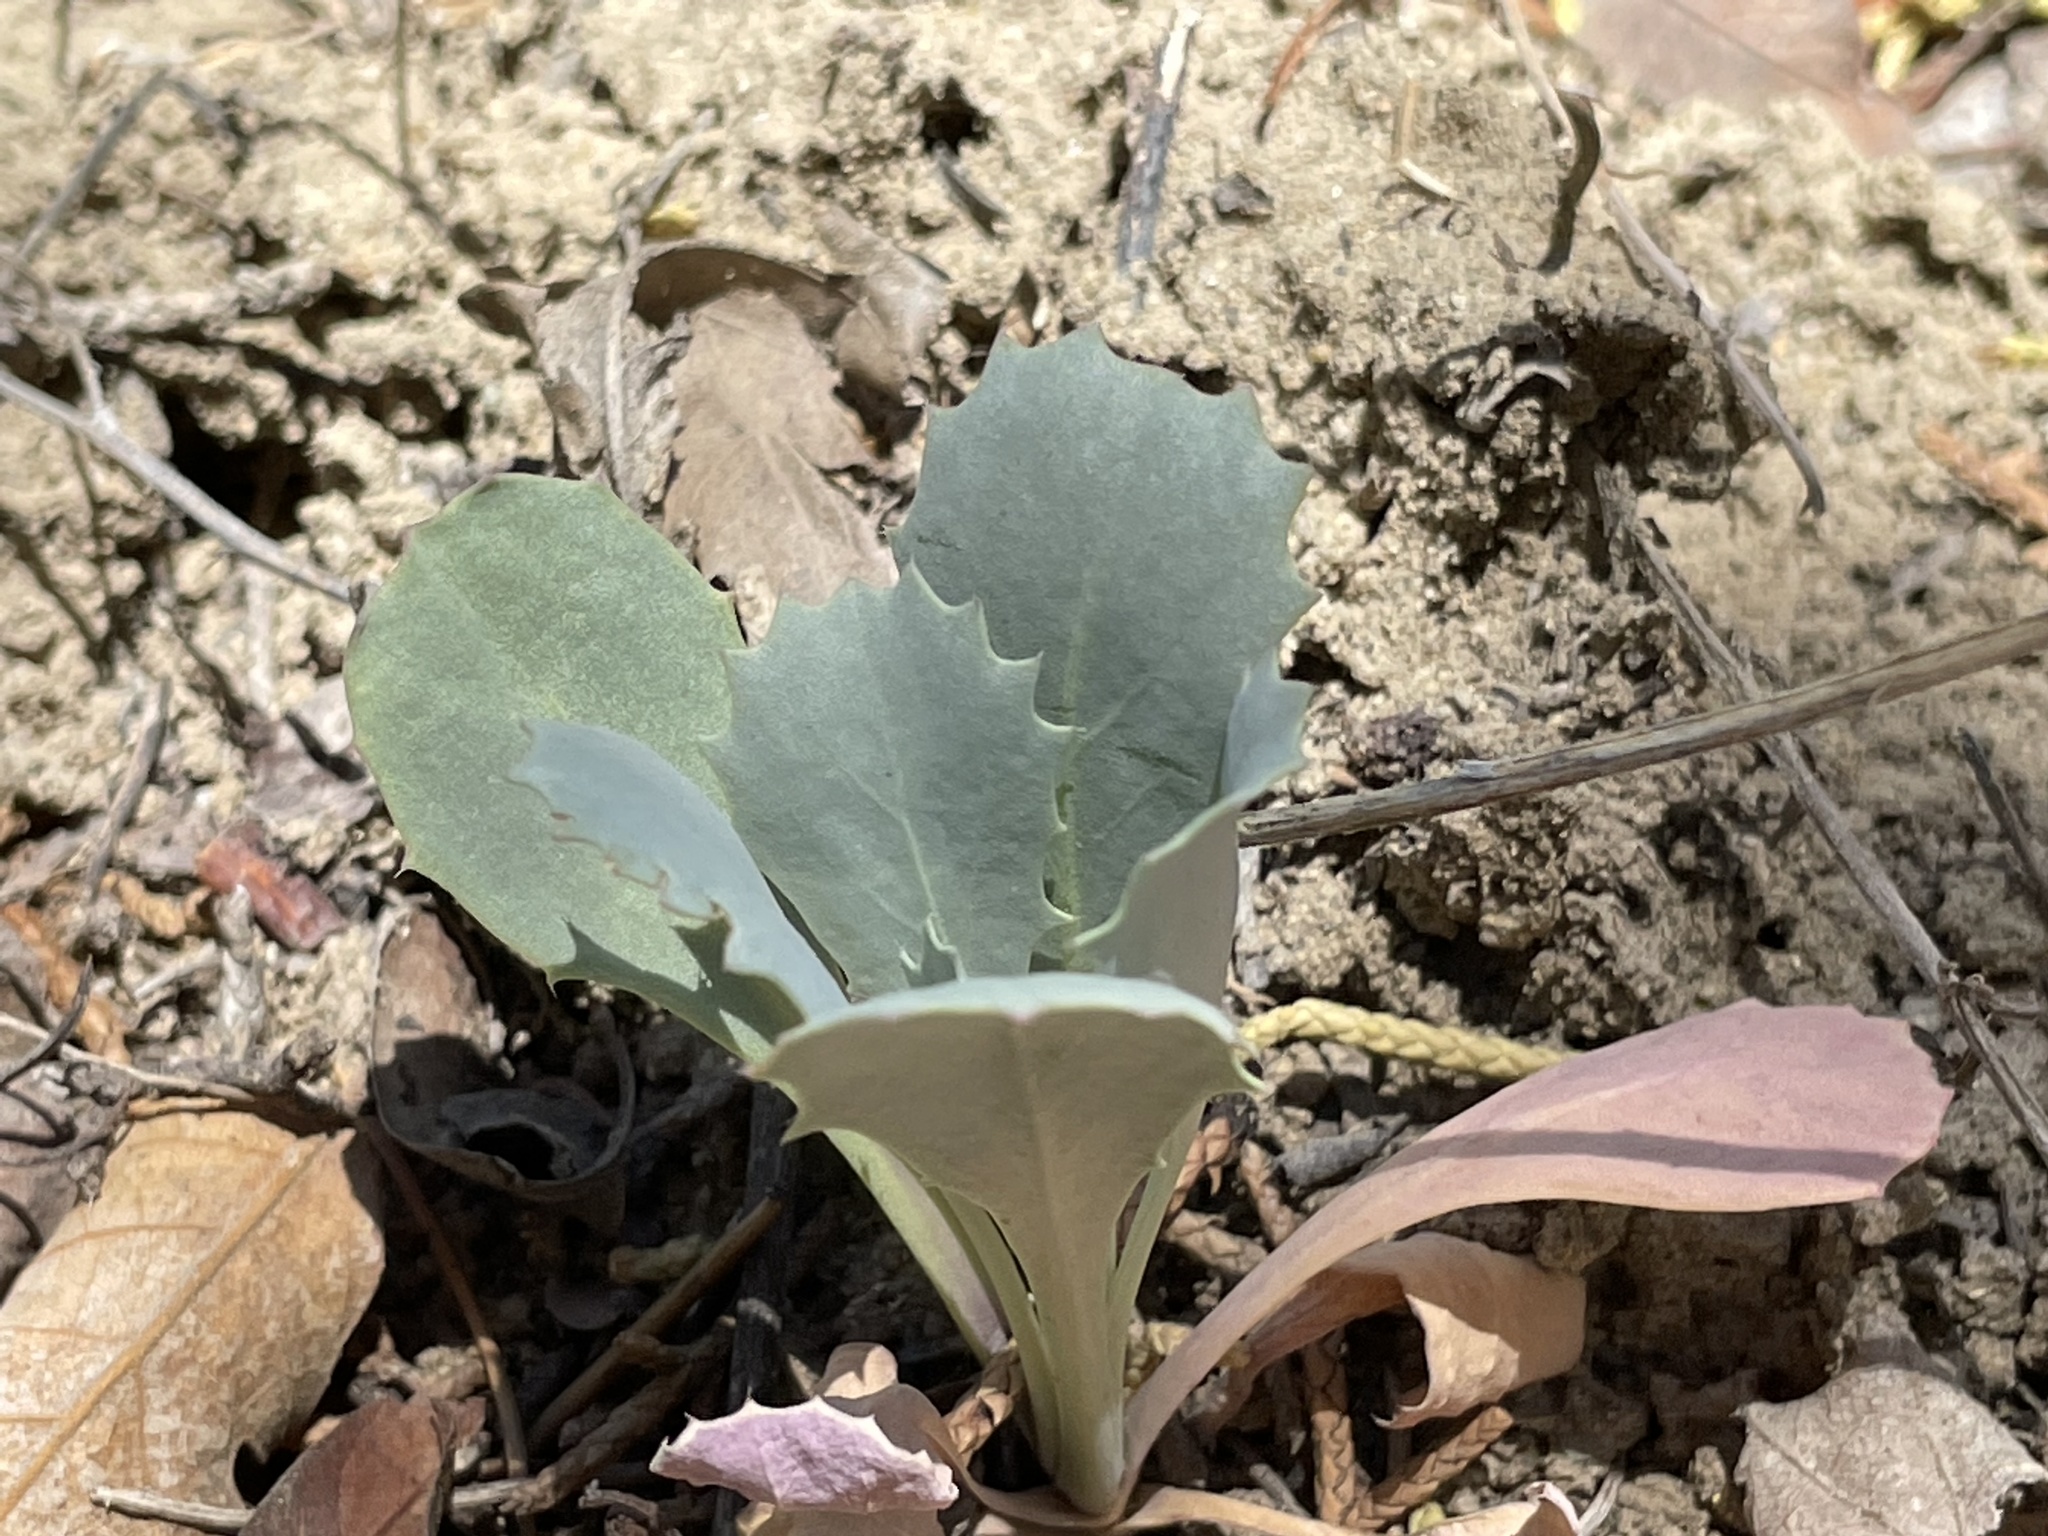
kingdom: Plantae
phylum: Tracheophyta
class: Magnoliopsida
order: Brassicales
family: Brassicaceae
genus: Streptanthus
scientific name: Streptanthus cordatus
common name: Heart-leaf jewel-flower
